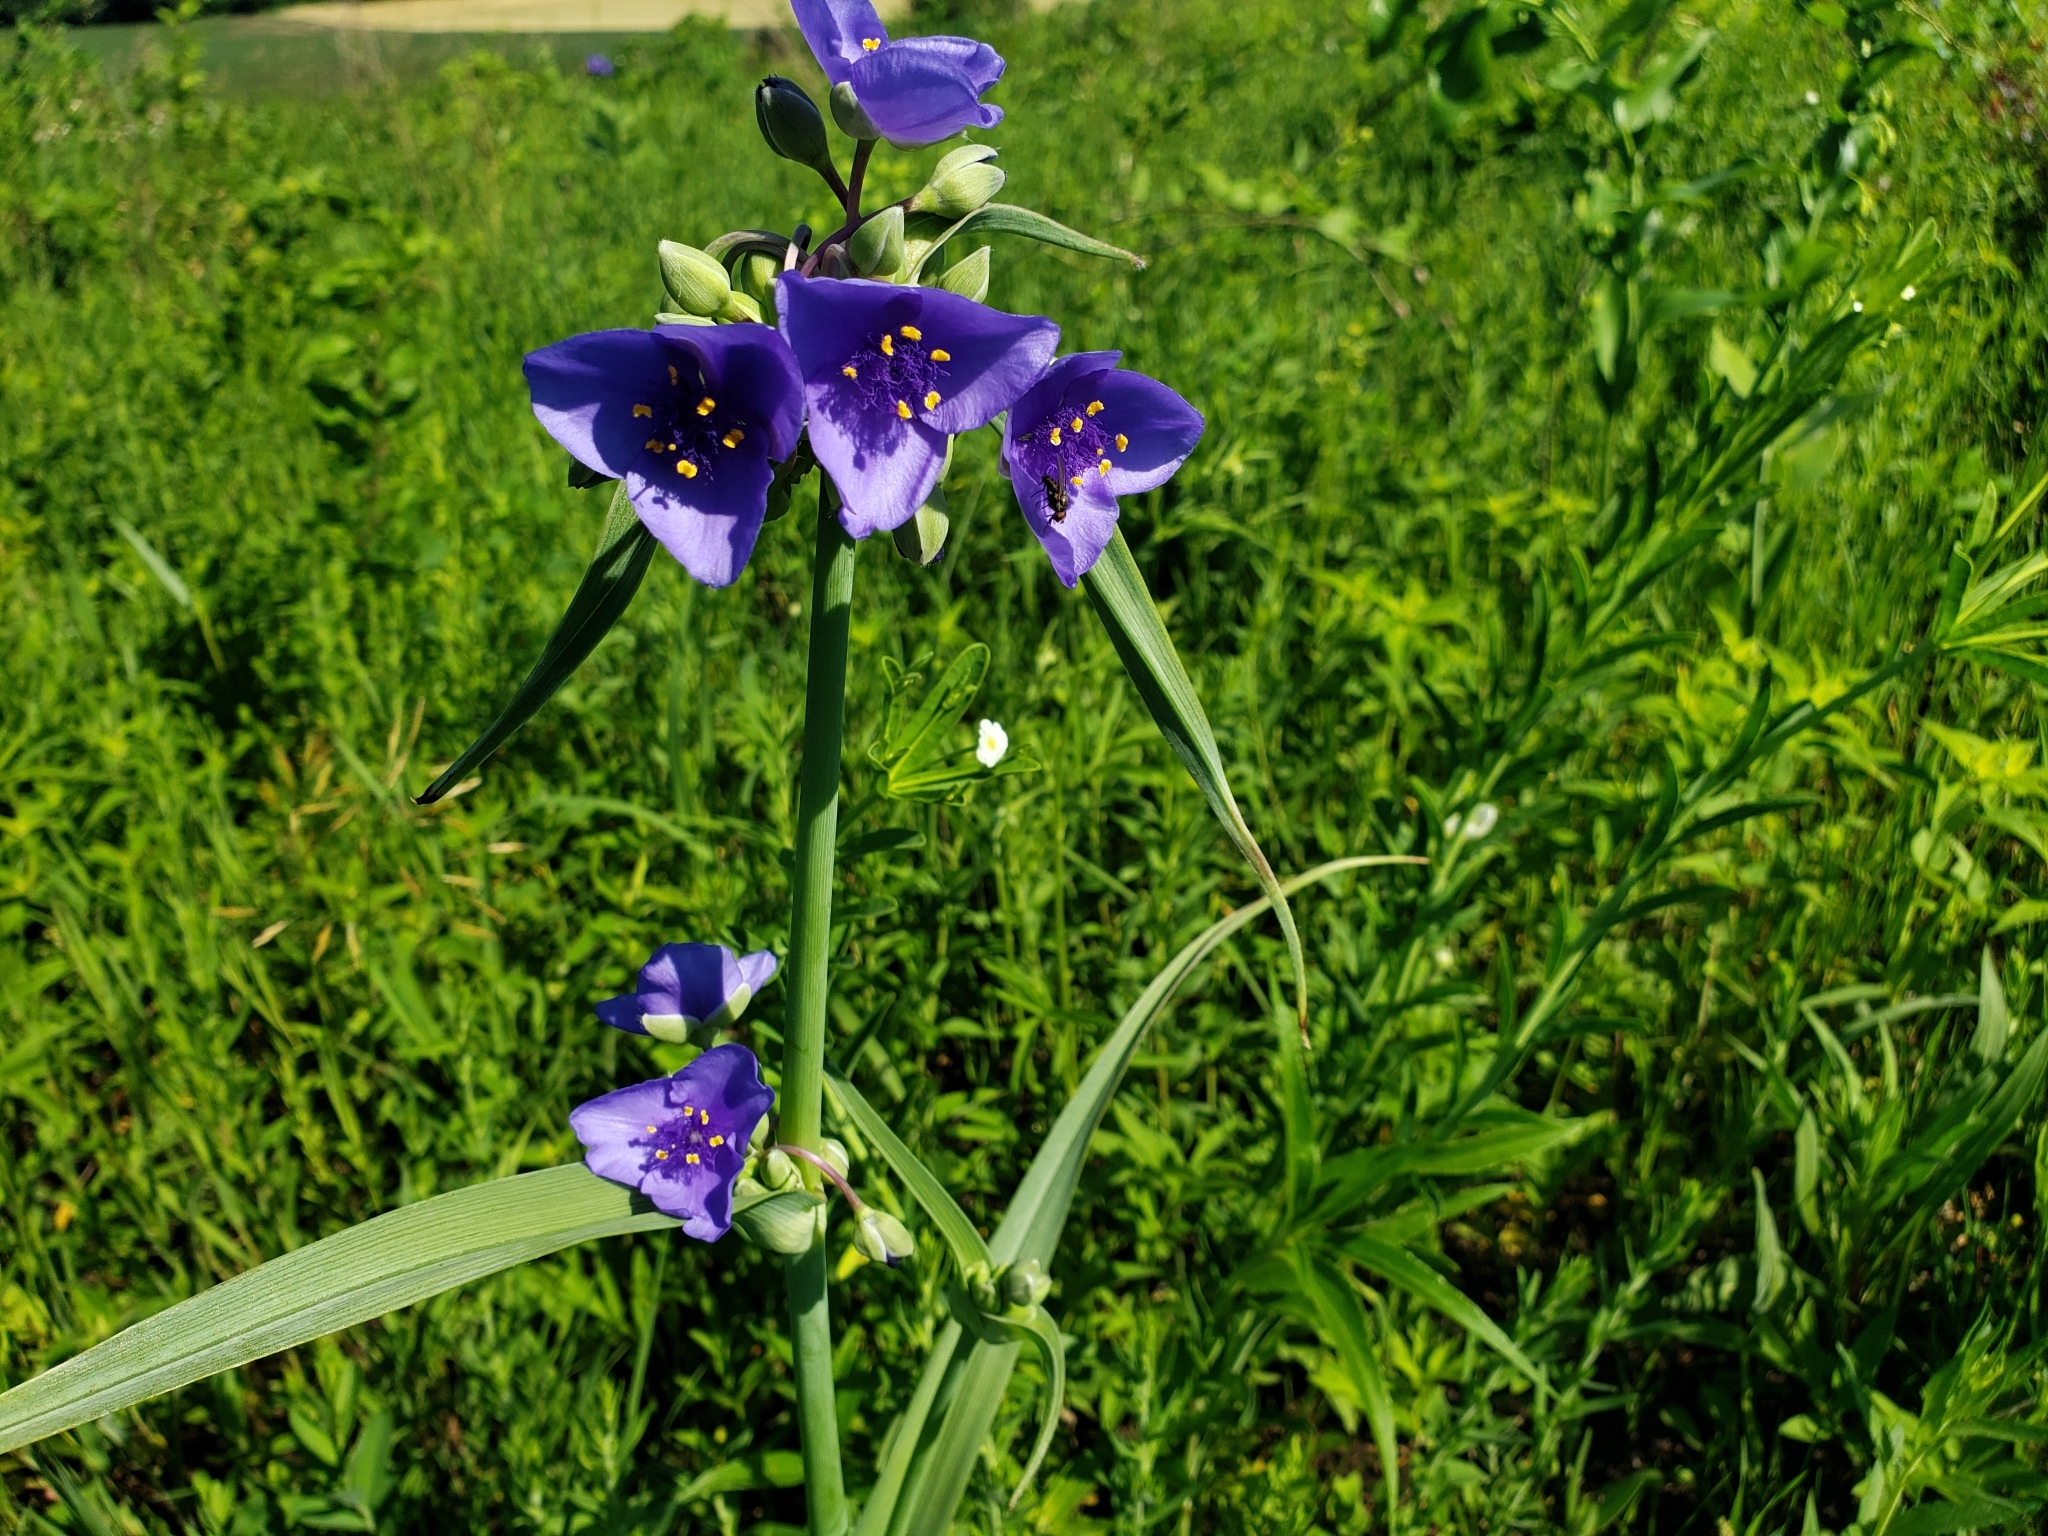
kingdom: Plantae
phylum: Tracheophyta
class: Liliopsida
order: Commelinales
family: Commelinaceae
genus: Tradescantia
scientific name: Tradescantia ohiensis
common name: Ohio spiderwort
